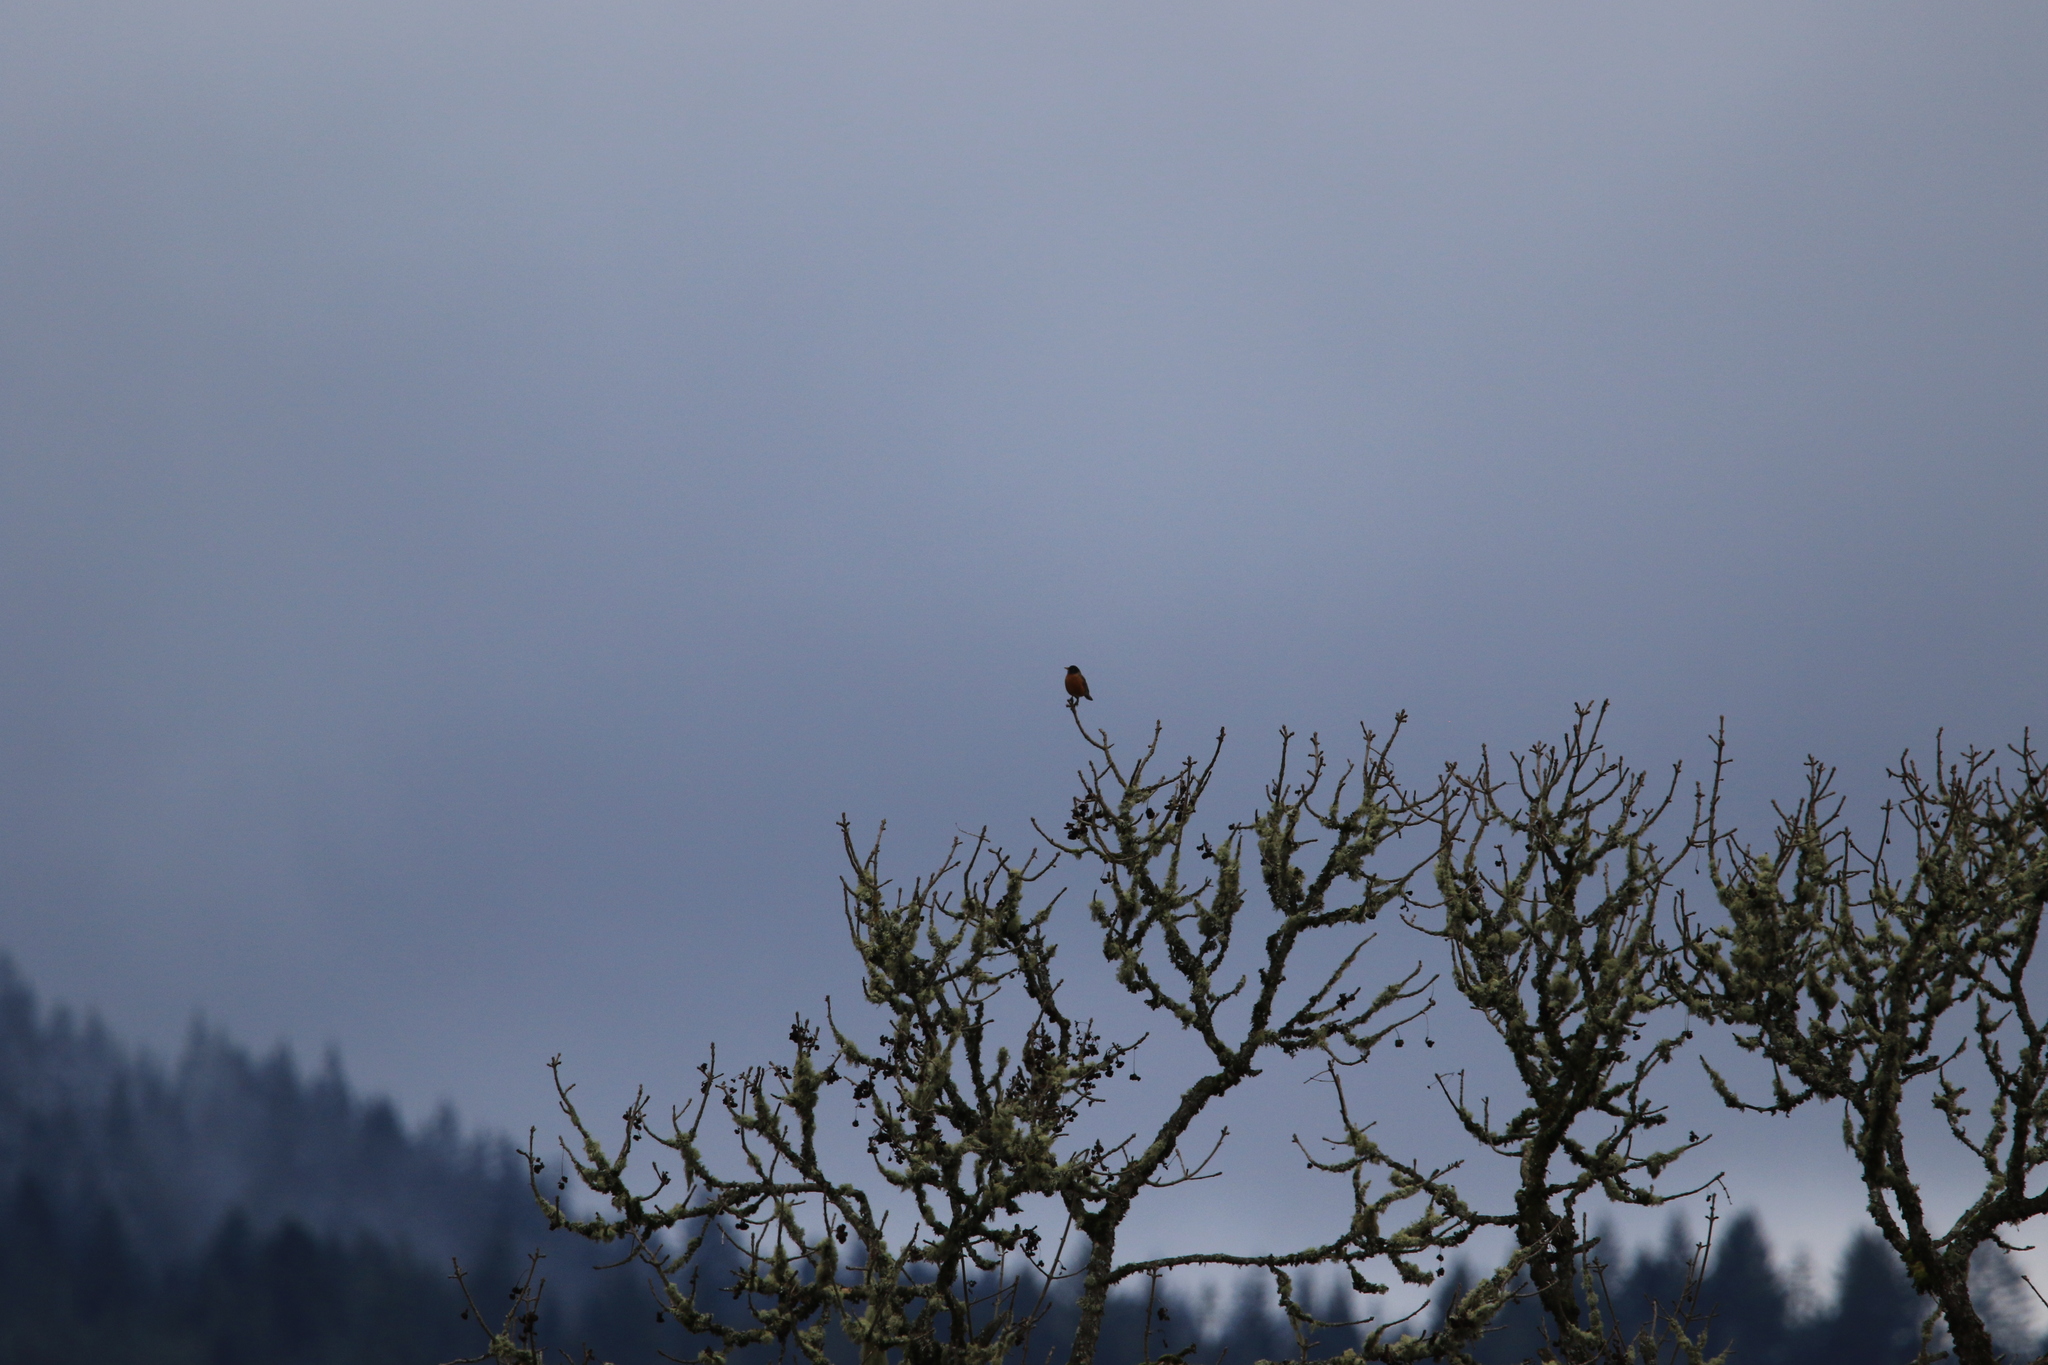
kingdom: Animalia
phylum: Chordata
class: Aves
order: Passeriformes
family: Turdidae
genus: Turdus
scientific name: Turdus migratorius
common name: American robin
